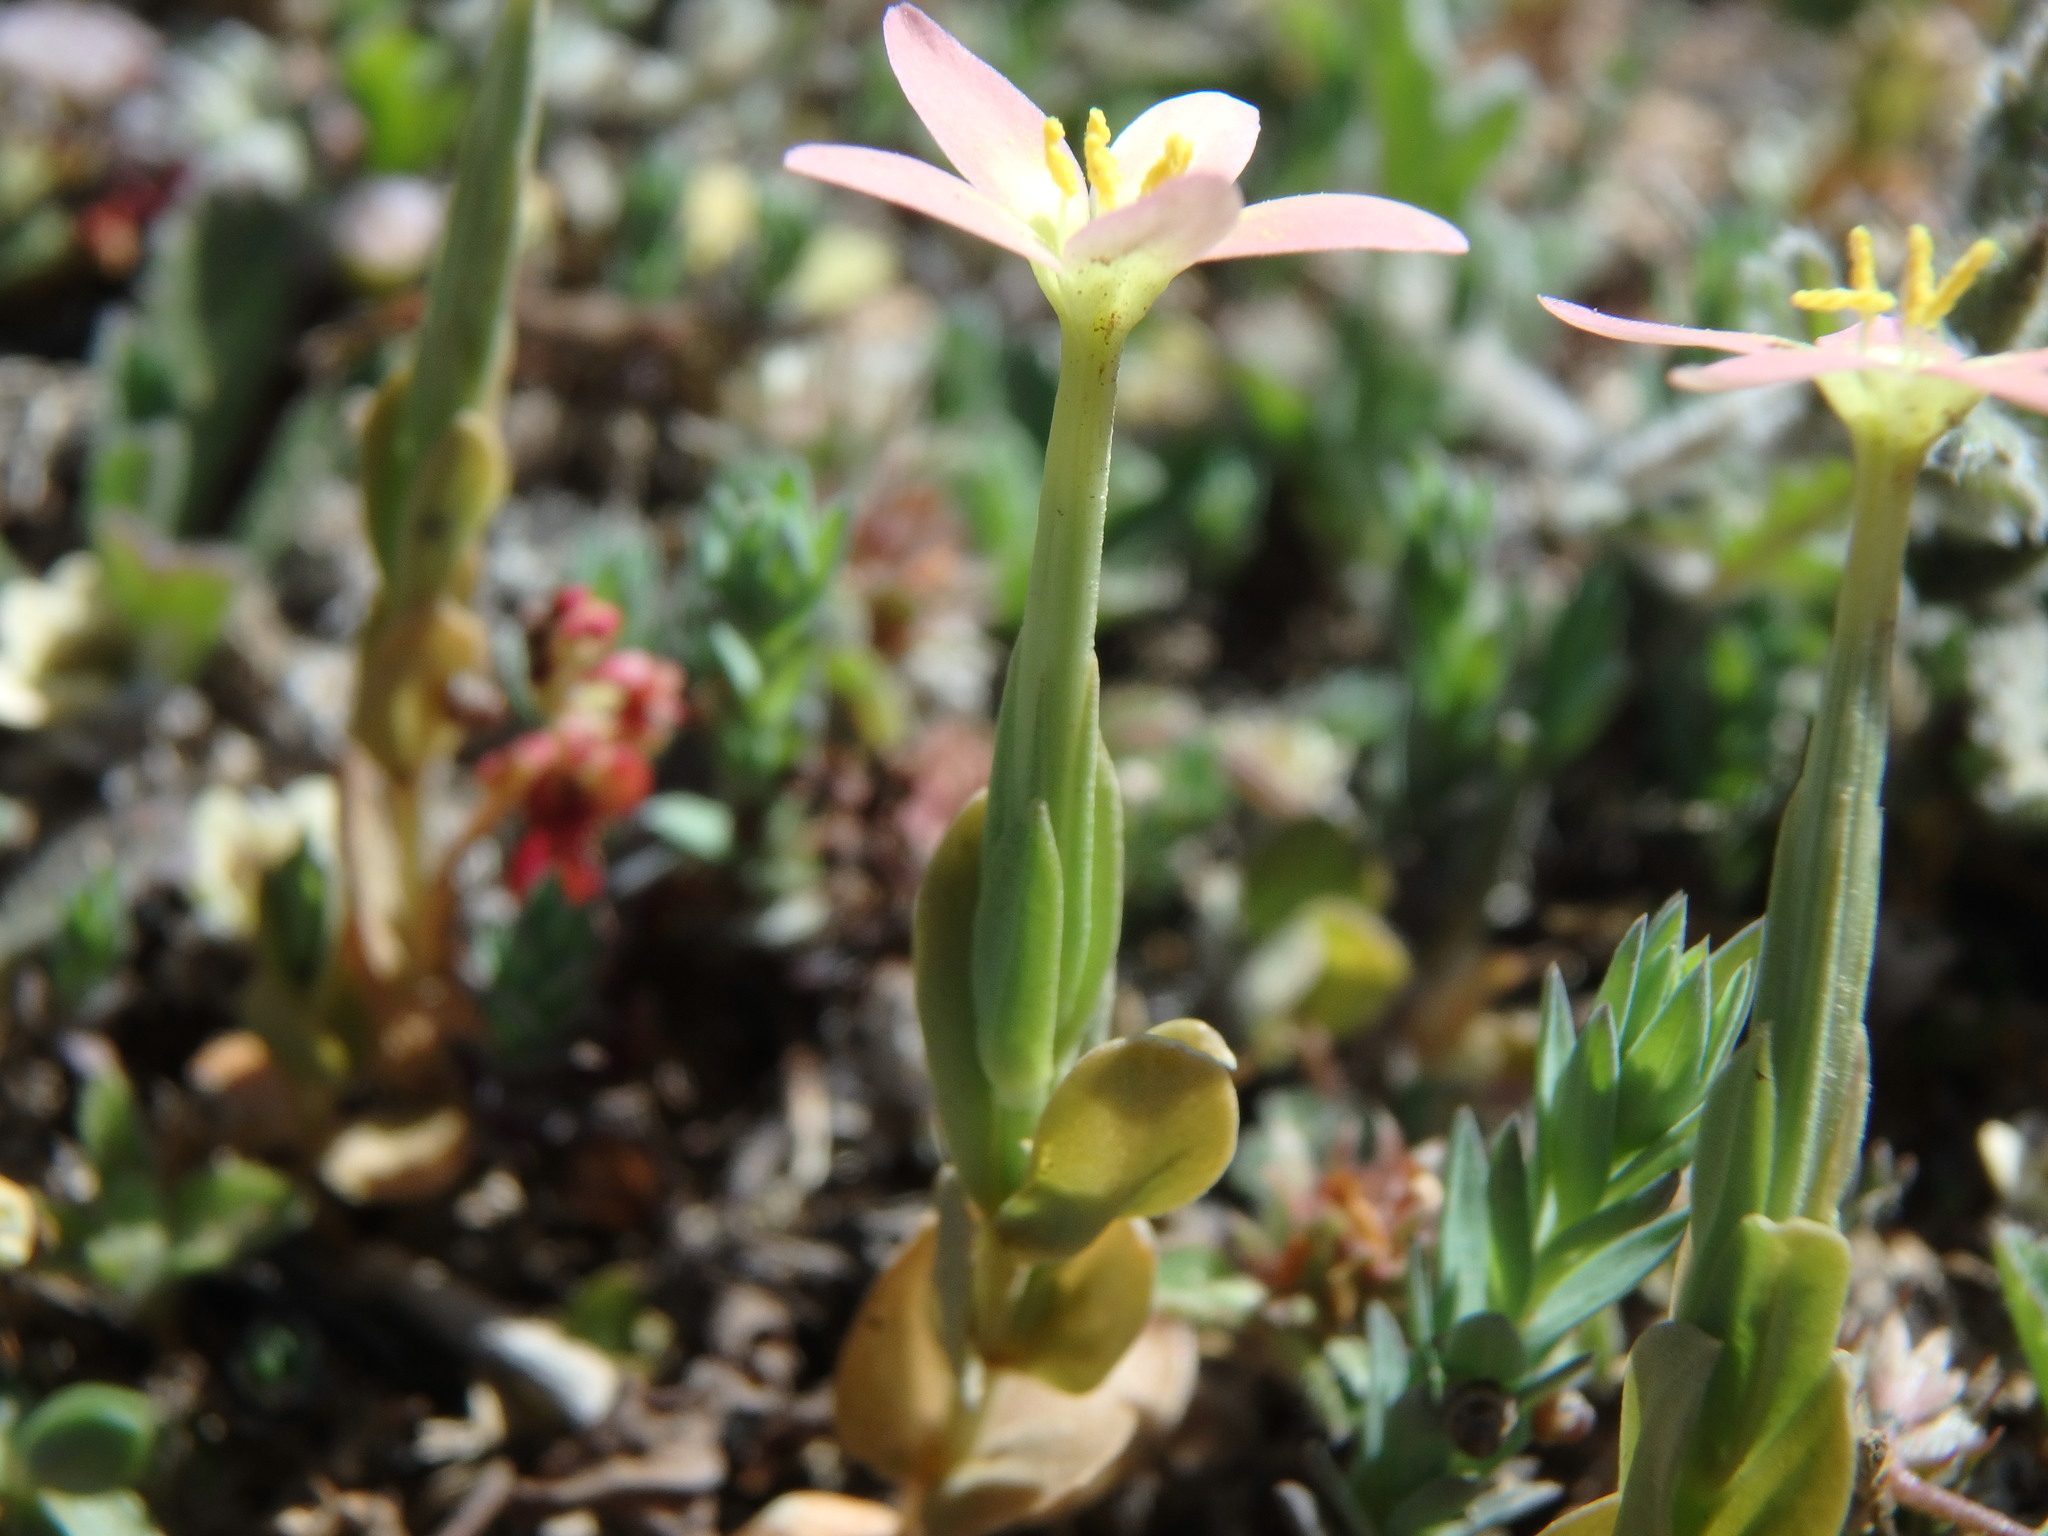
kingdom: Plantae
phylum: Tracheophyta
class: Magnoliopsida
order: Gentianales
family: Gentianaceae
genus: Centaurium
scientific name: Centaurium discolor
